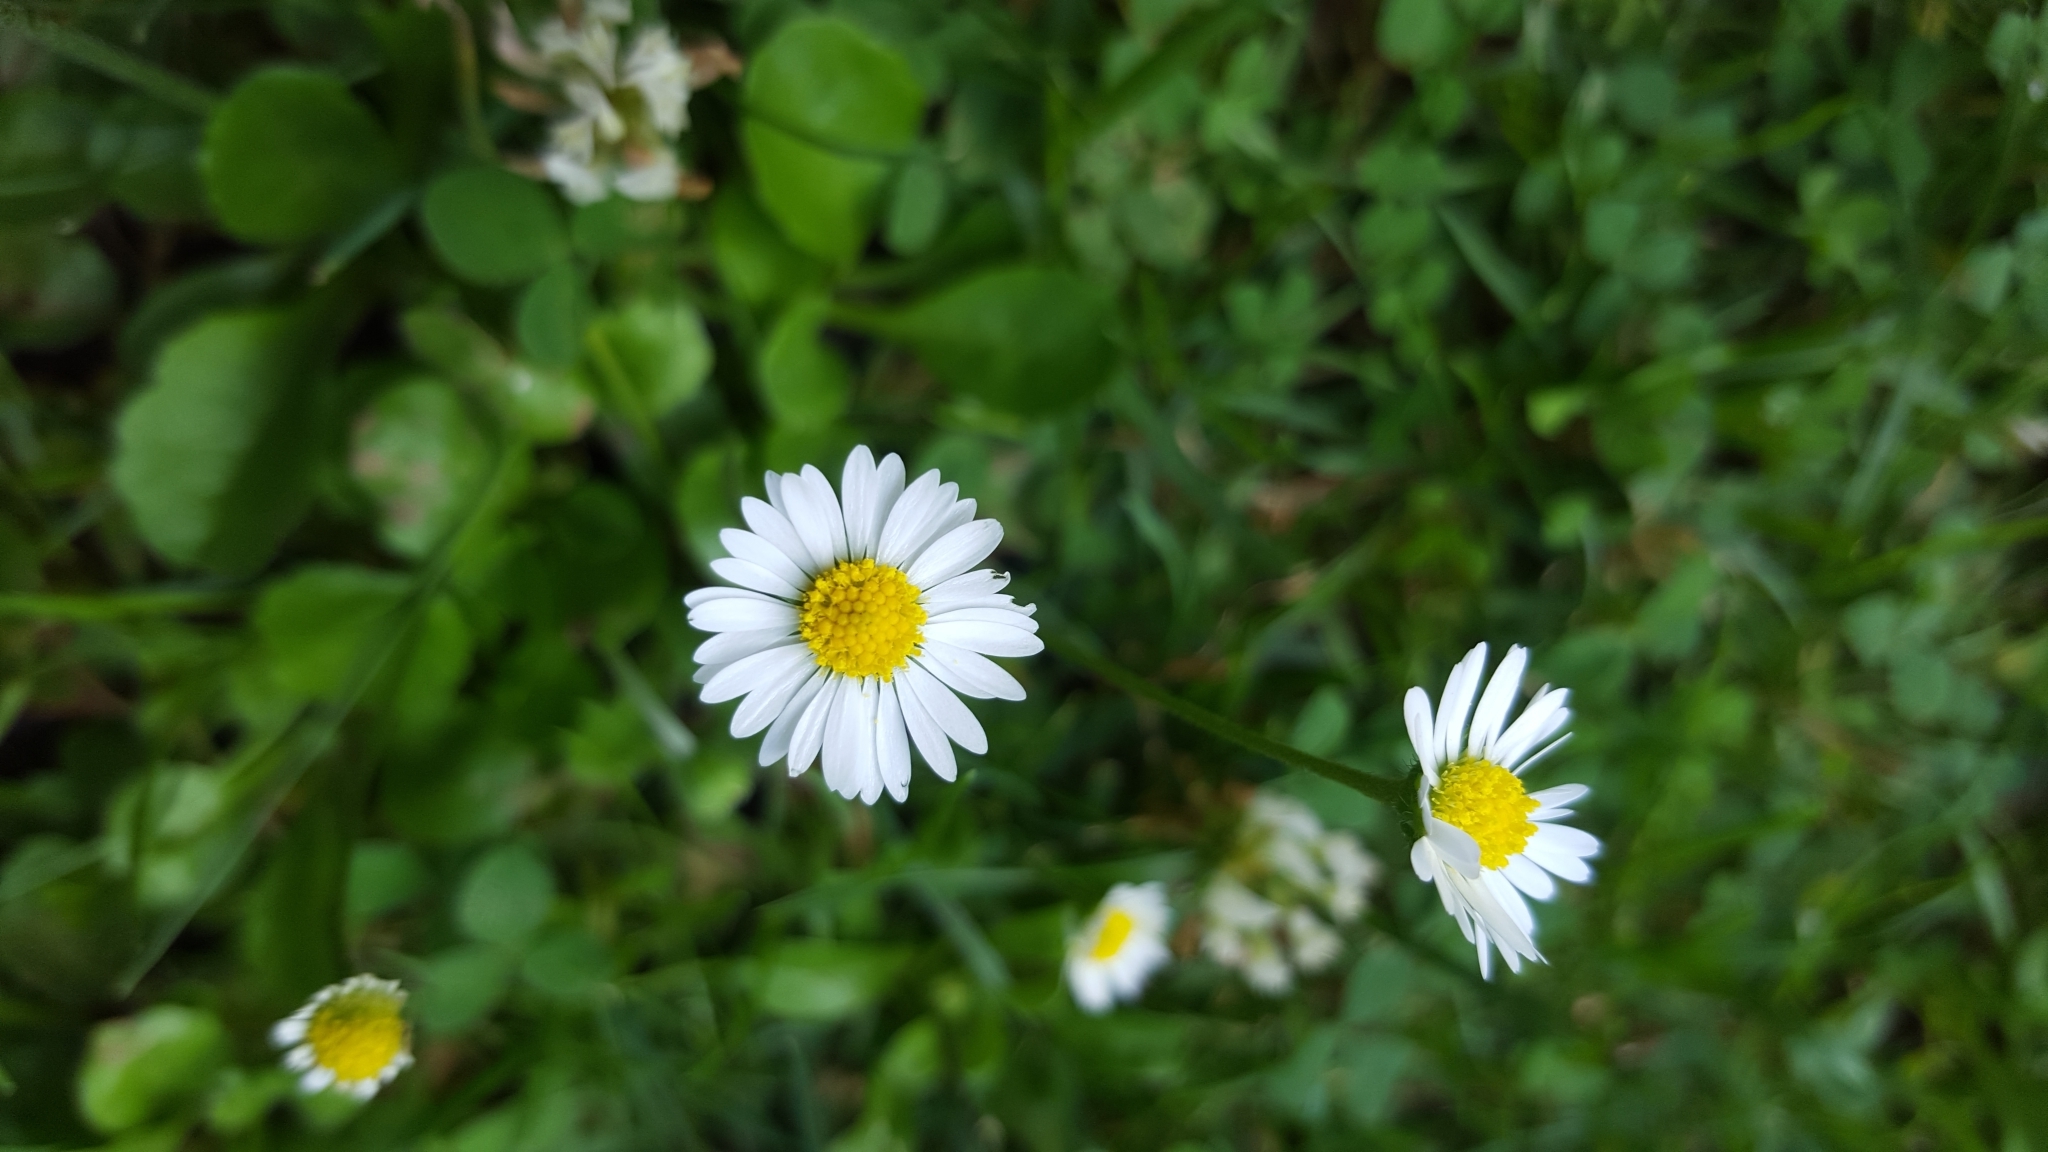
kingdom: Plantae
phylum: Tracheophyta
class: Magnoliopsida
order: Asterales
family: Asteraceae
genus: Bellis
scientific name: Bellis perennis
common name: Lawndaisy
